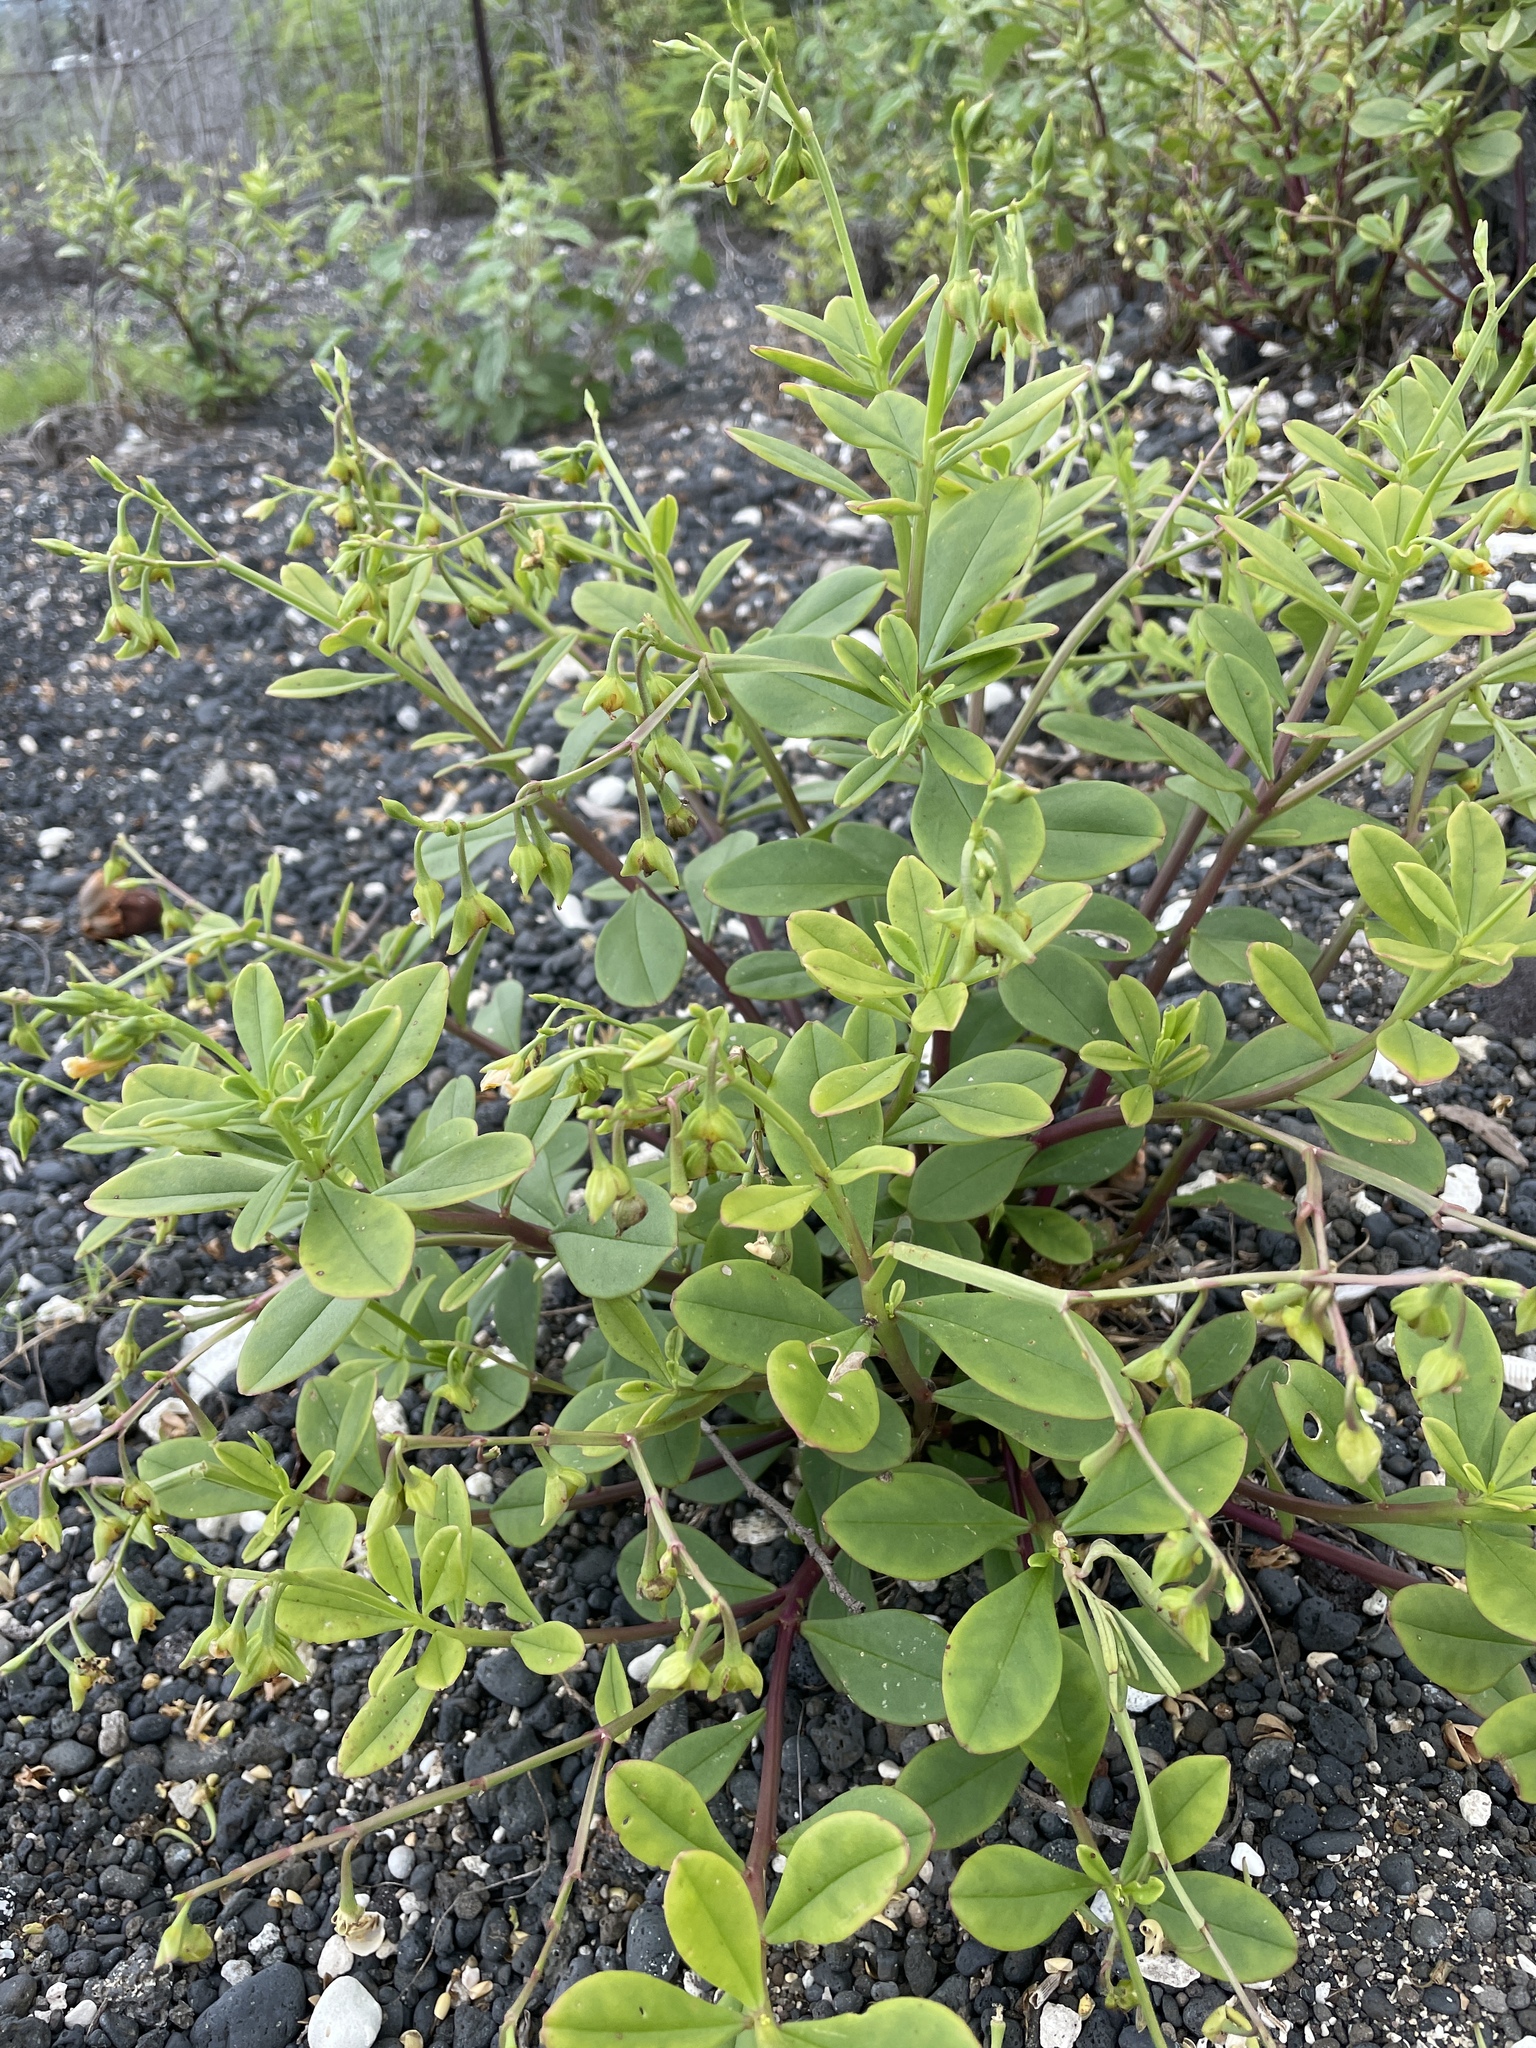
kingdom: Plantae
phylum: Tracheophyta
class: Magnoliopsida
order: Caryophyllales
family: Talinaceae
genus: Talinum
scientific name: Talinum fruticosum
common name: Verdolaga-francesa
